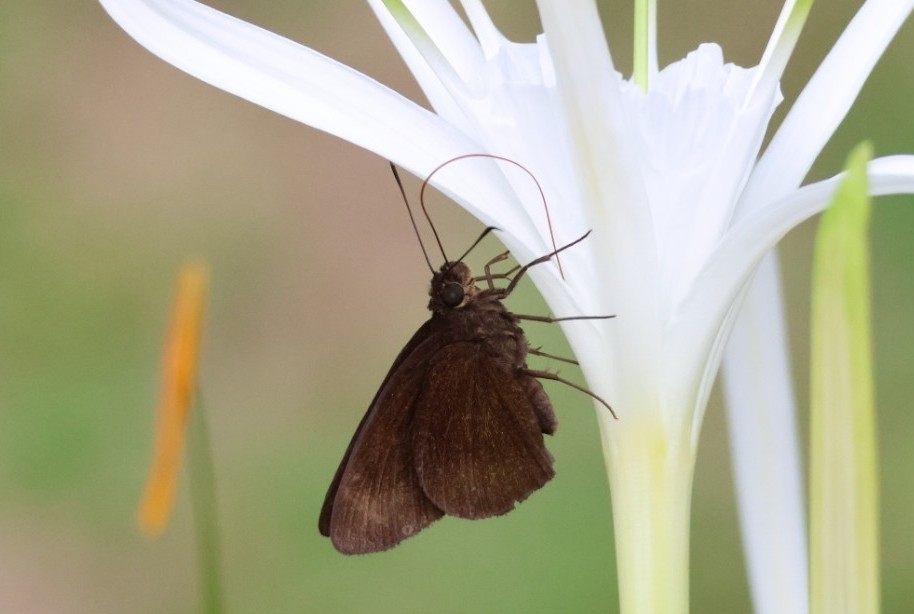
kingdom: Animalia
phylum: Arthropoda
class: Insecta
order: Lepidoptera
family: Hesperiidae
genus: Ancistroides
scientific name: Ancistroides nigrita
